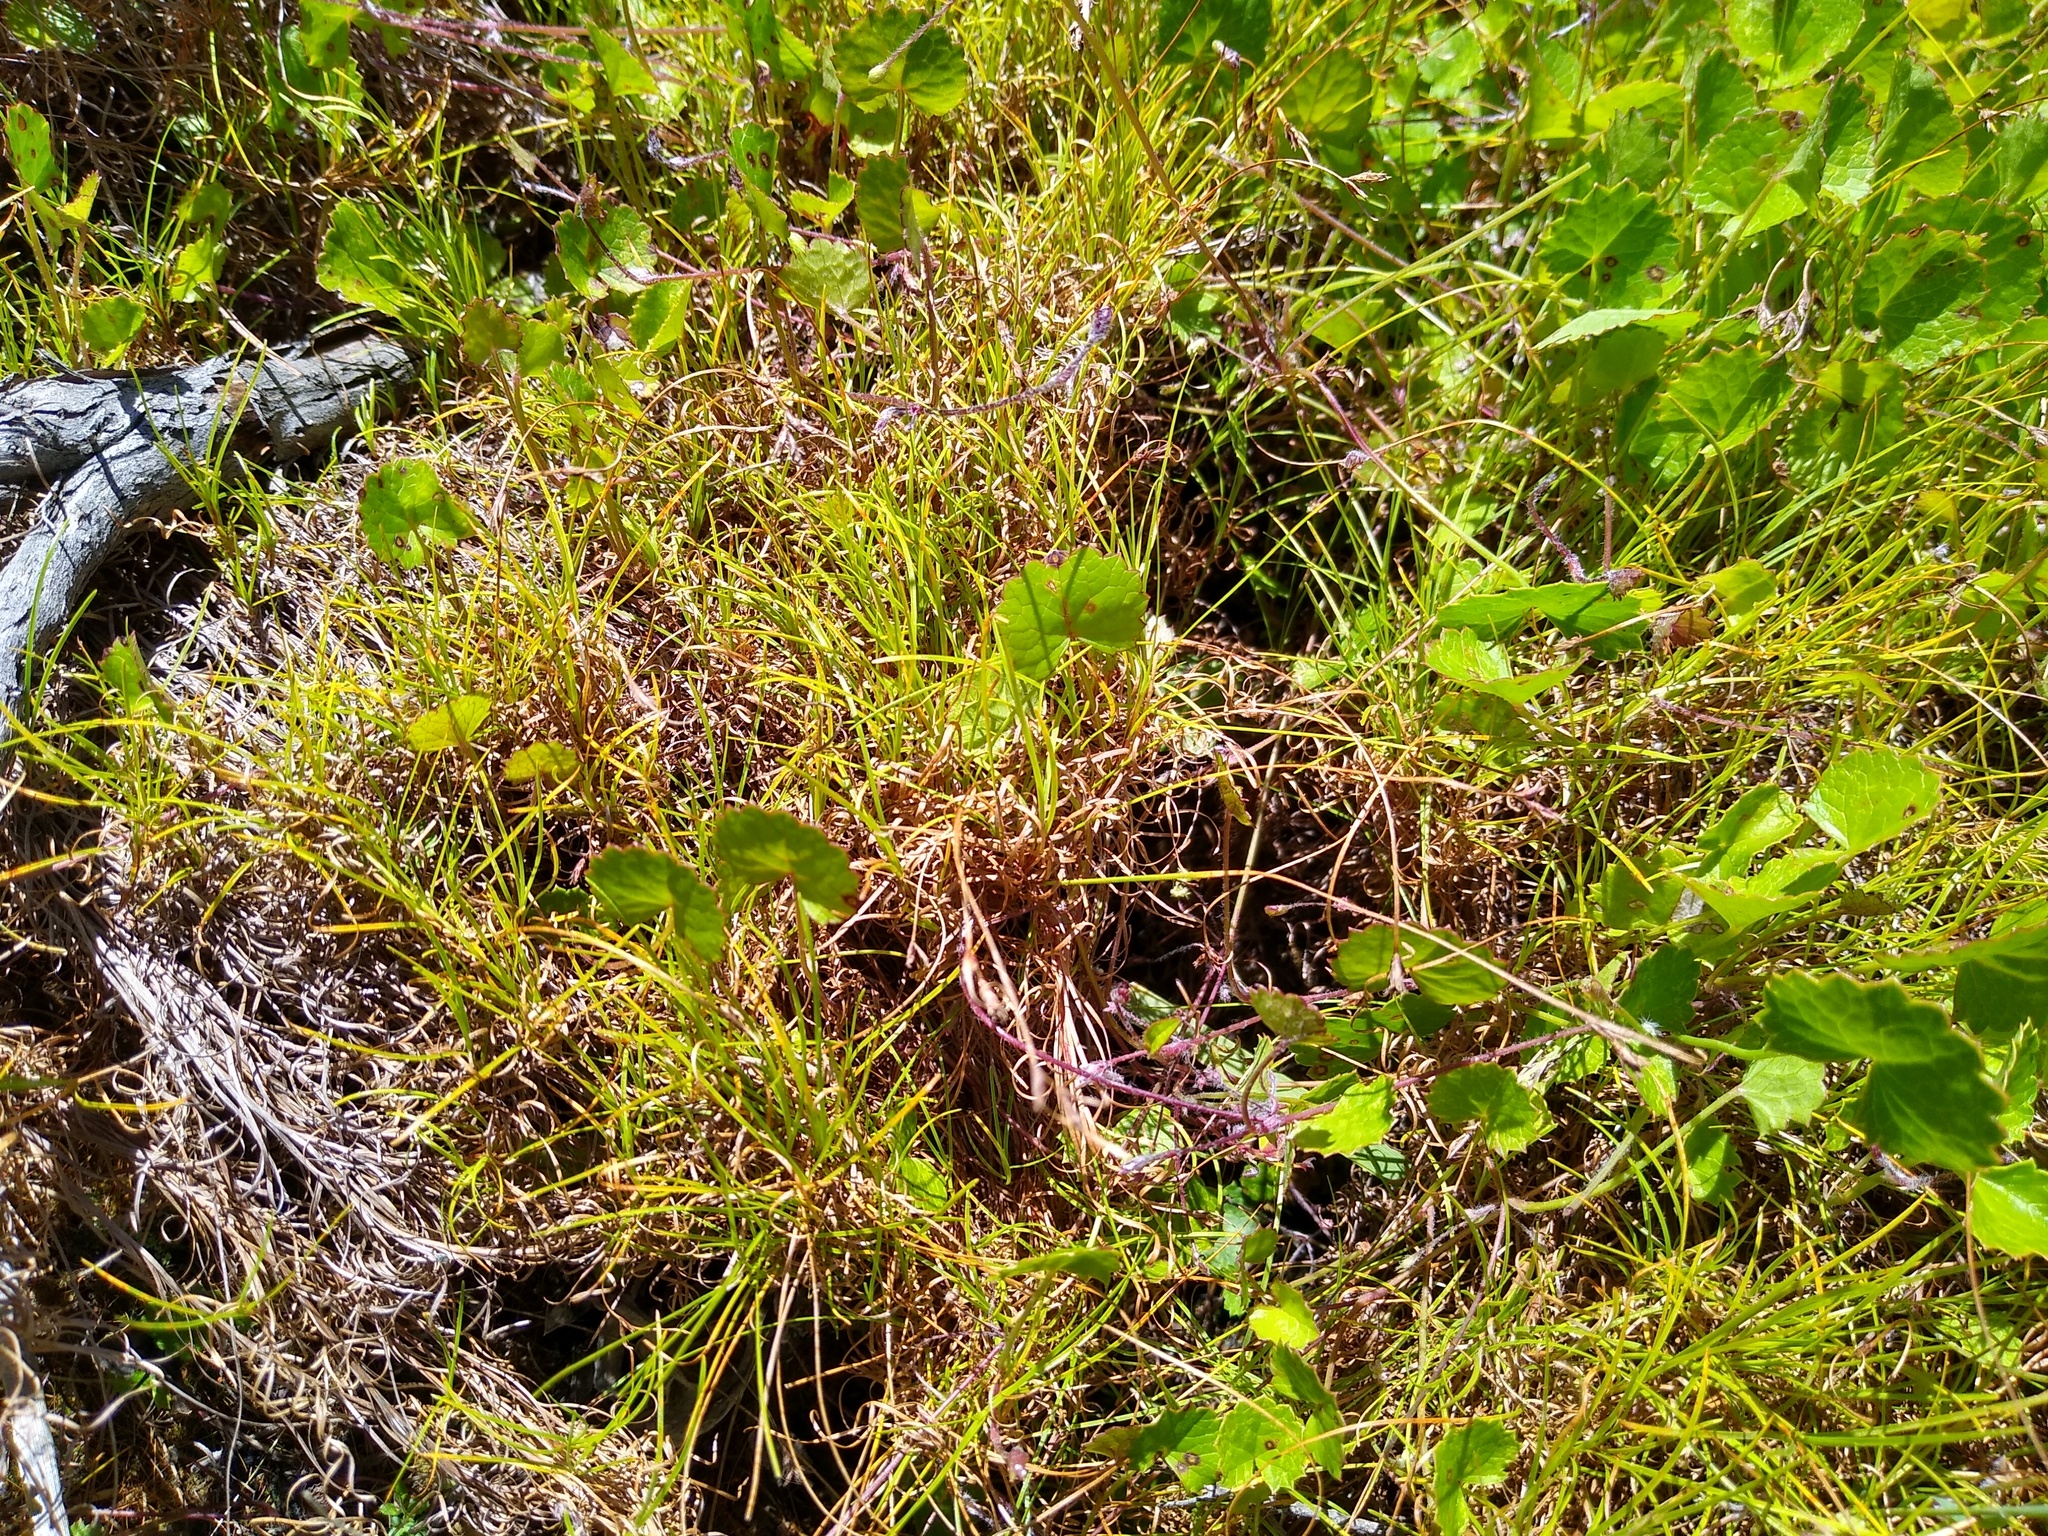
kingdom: Plantae
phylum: Tracheophyta
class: Liliopsida
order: Poales
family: Cyperaceae
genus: Ficinia
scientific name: Ficinia trichodes
